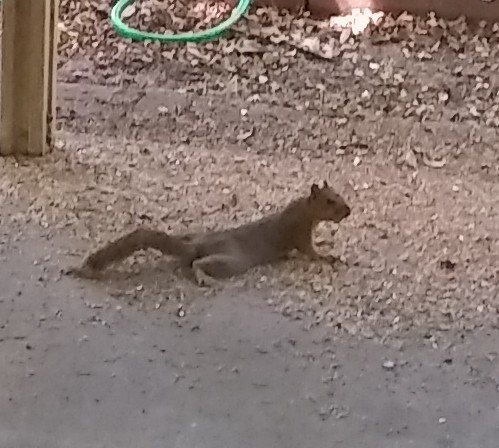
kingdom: Animalia
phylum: Chordata
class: Mammalia
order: Rodentia
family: Sciuridae
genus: Sciurus
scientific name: Sciurus niger
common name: Fox squirrel
